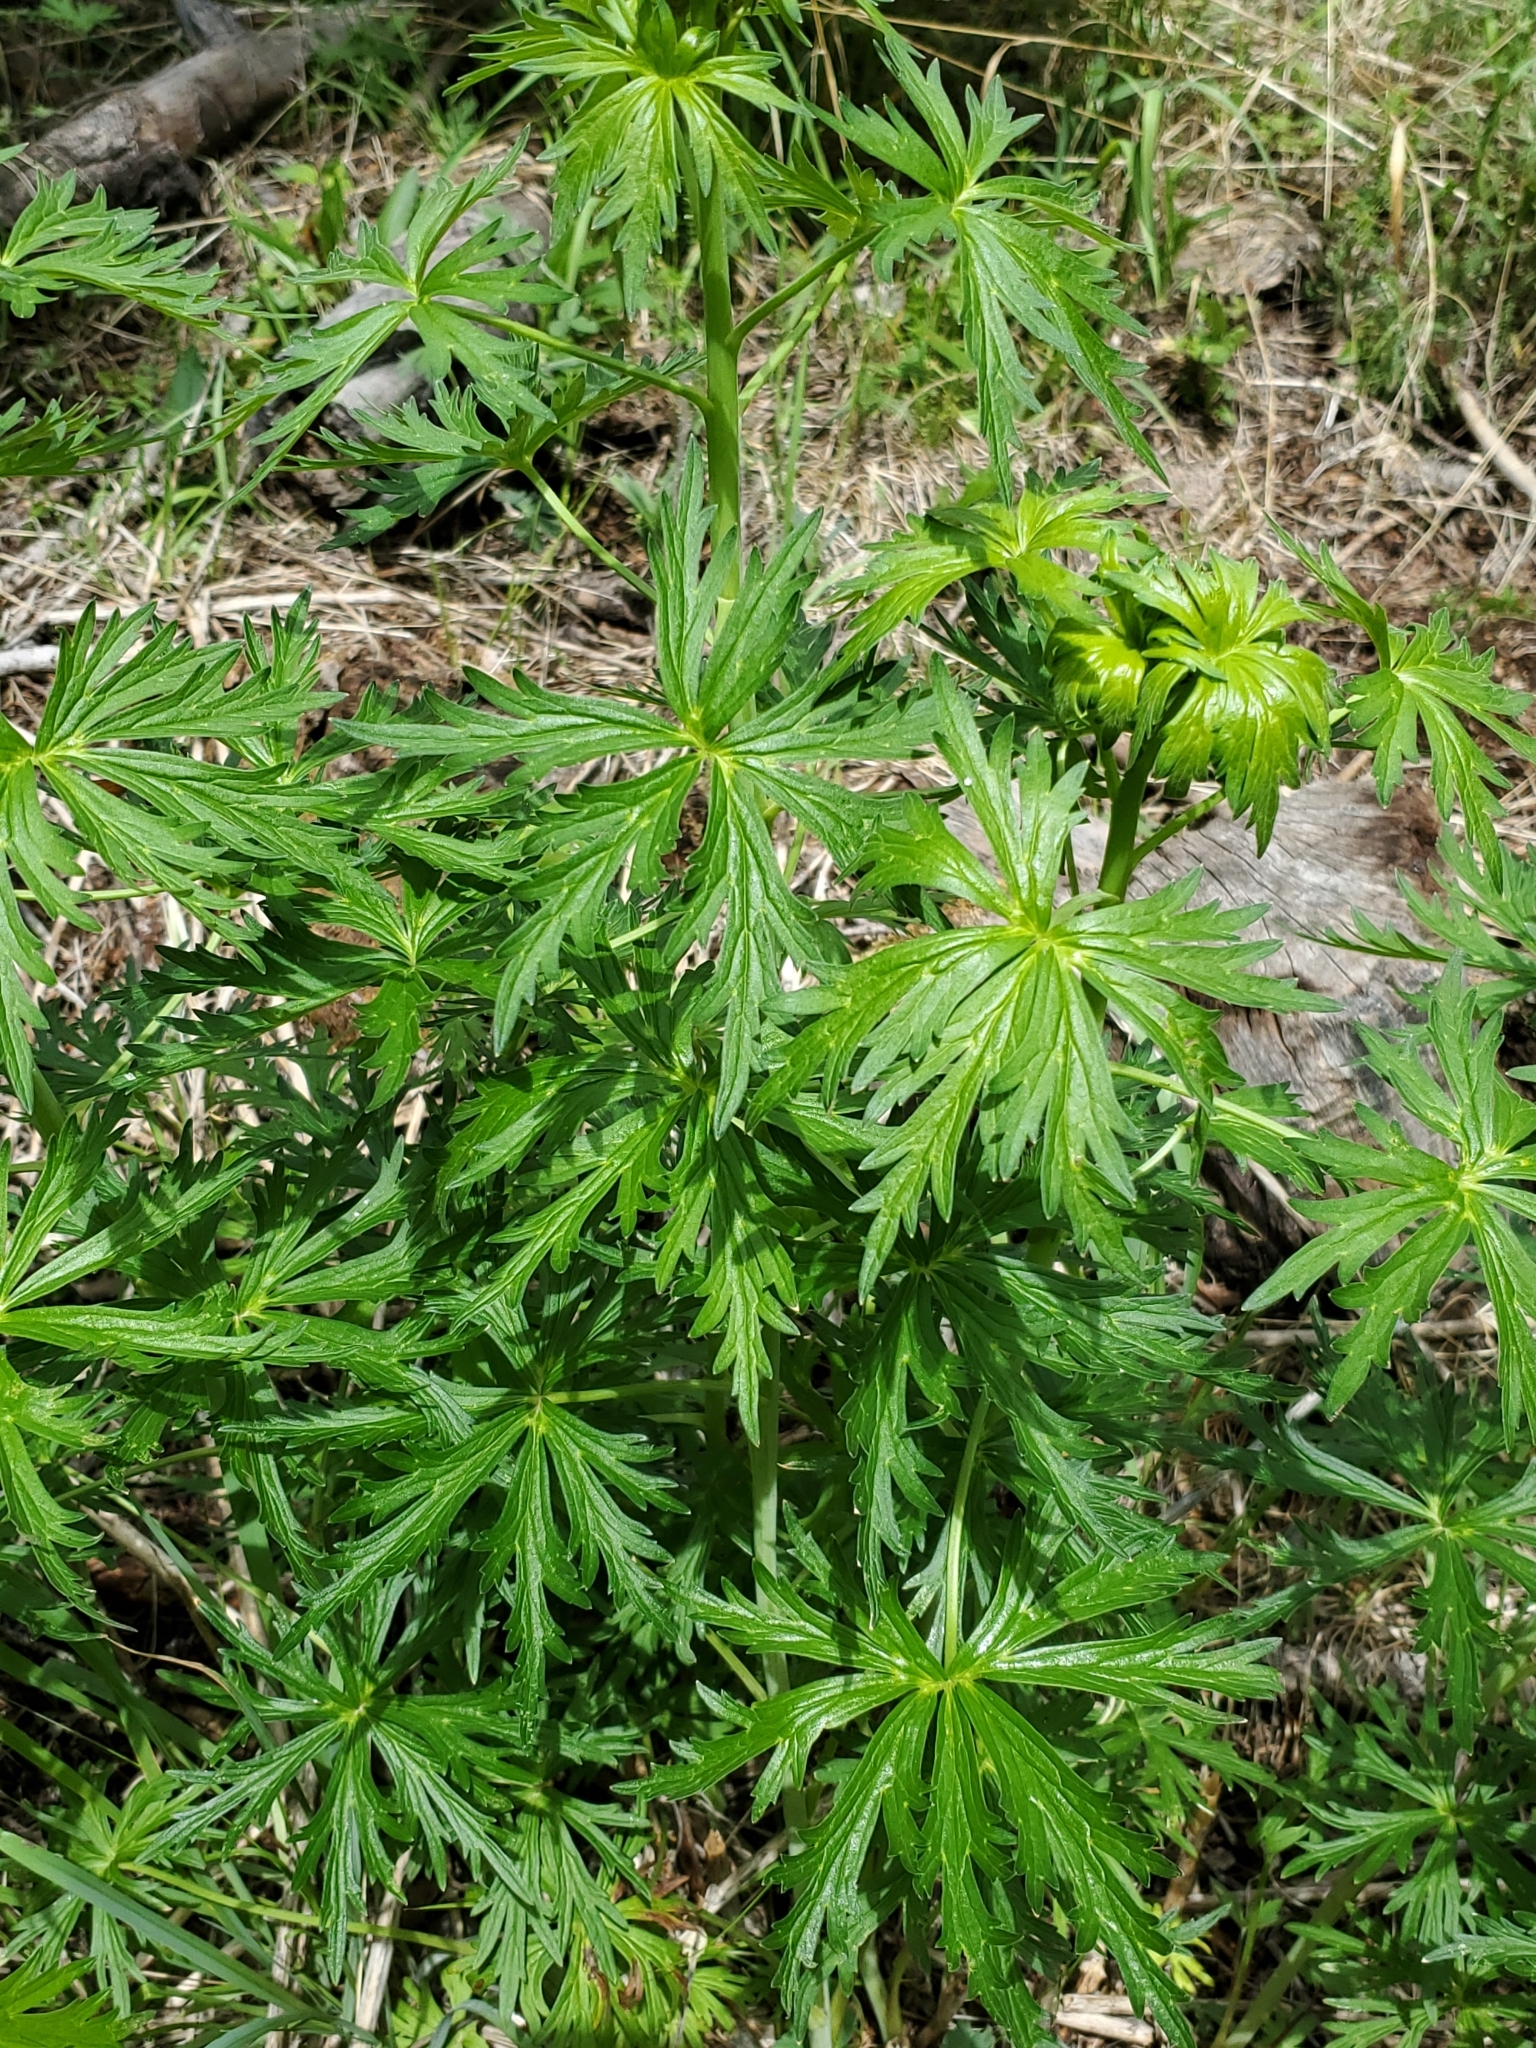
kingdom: Plantae
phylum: Tracheophyta
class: Magnoliopsida
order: Ranunculales
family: Ranunculaceae
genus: Delphinium
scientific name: Delphinium sapellonis
